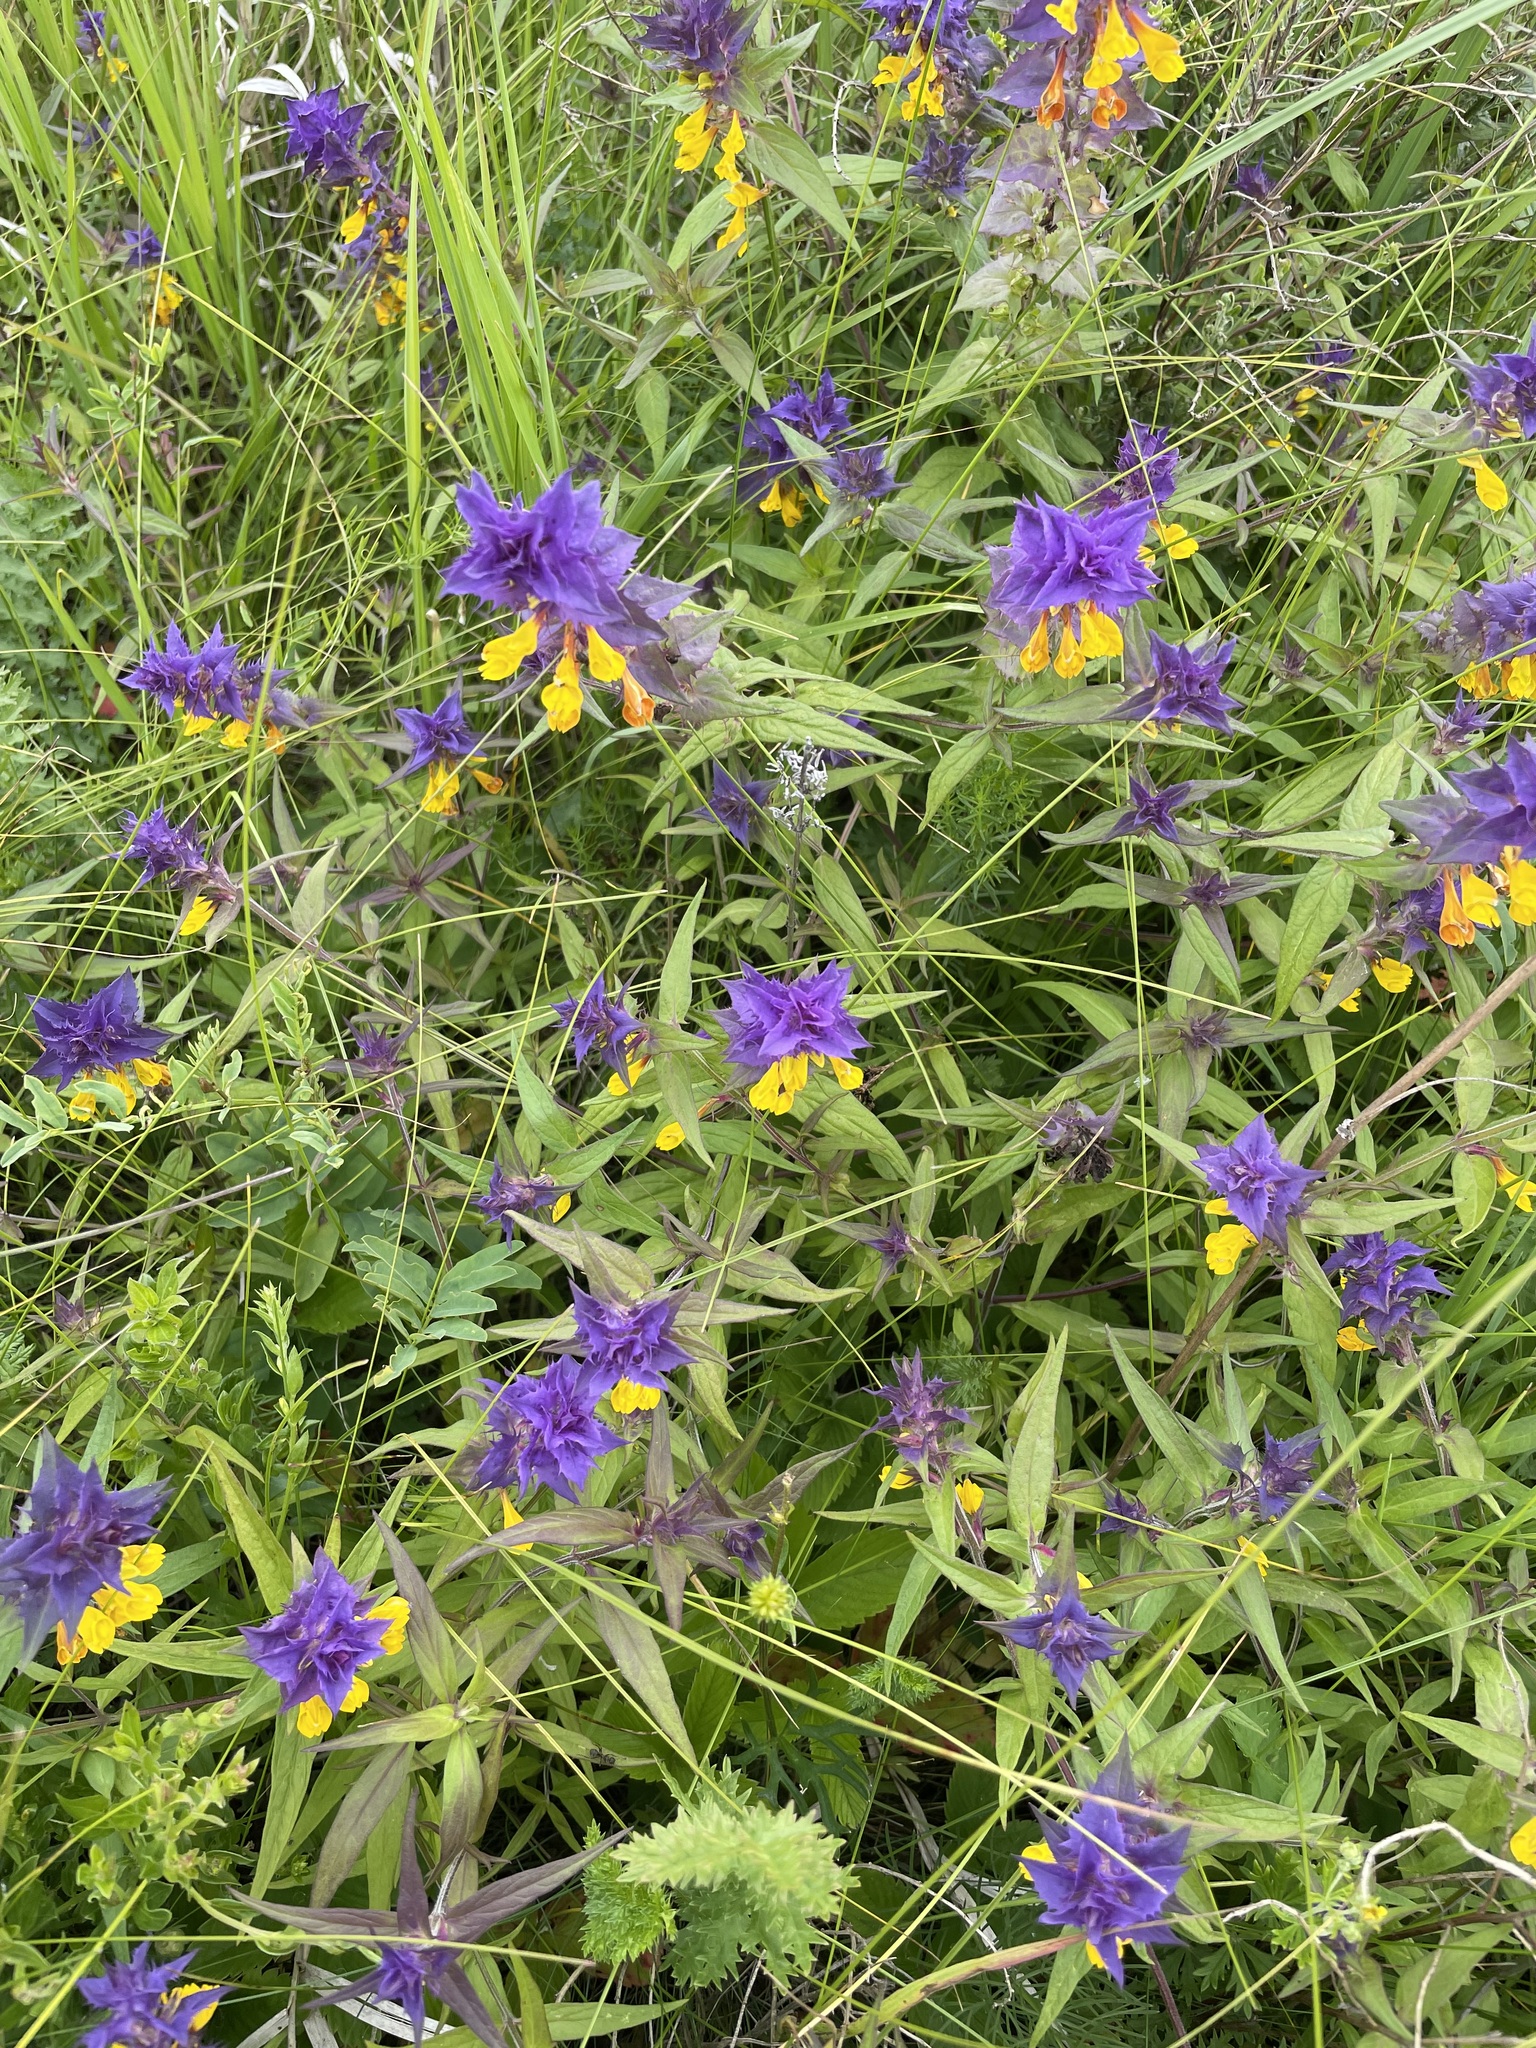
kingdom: Plantae
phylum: Tracheophyta
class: Magnoliopsida
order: Lamiales
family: Orobanchaceae
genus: Melampyrum
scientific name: Melampyrum nemorosum
